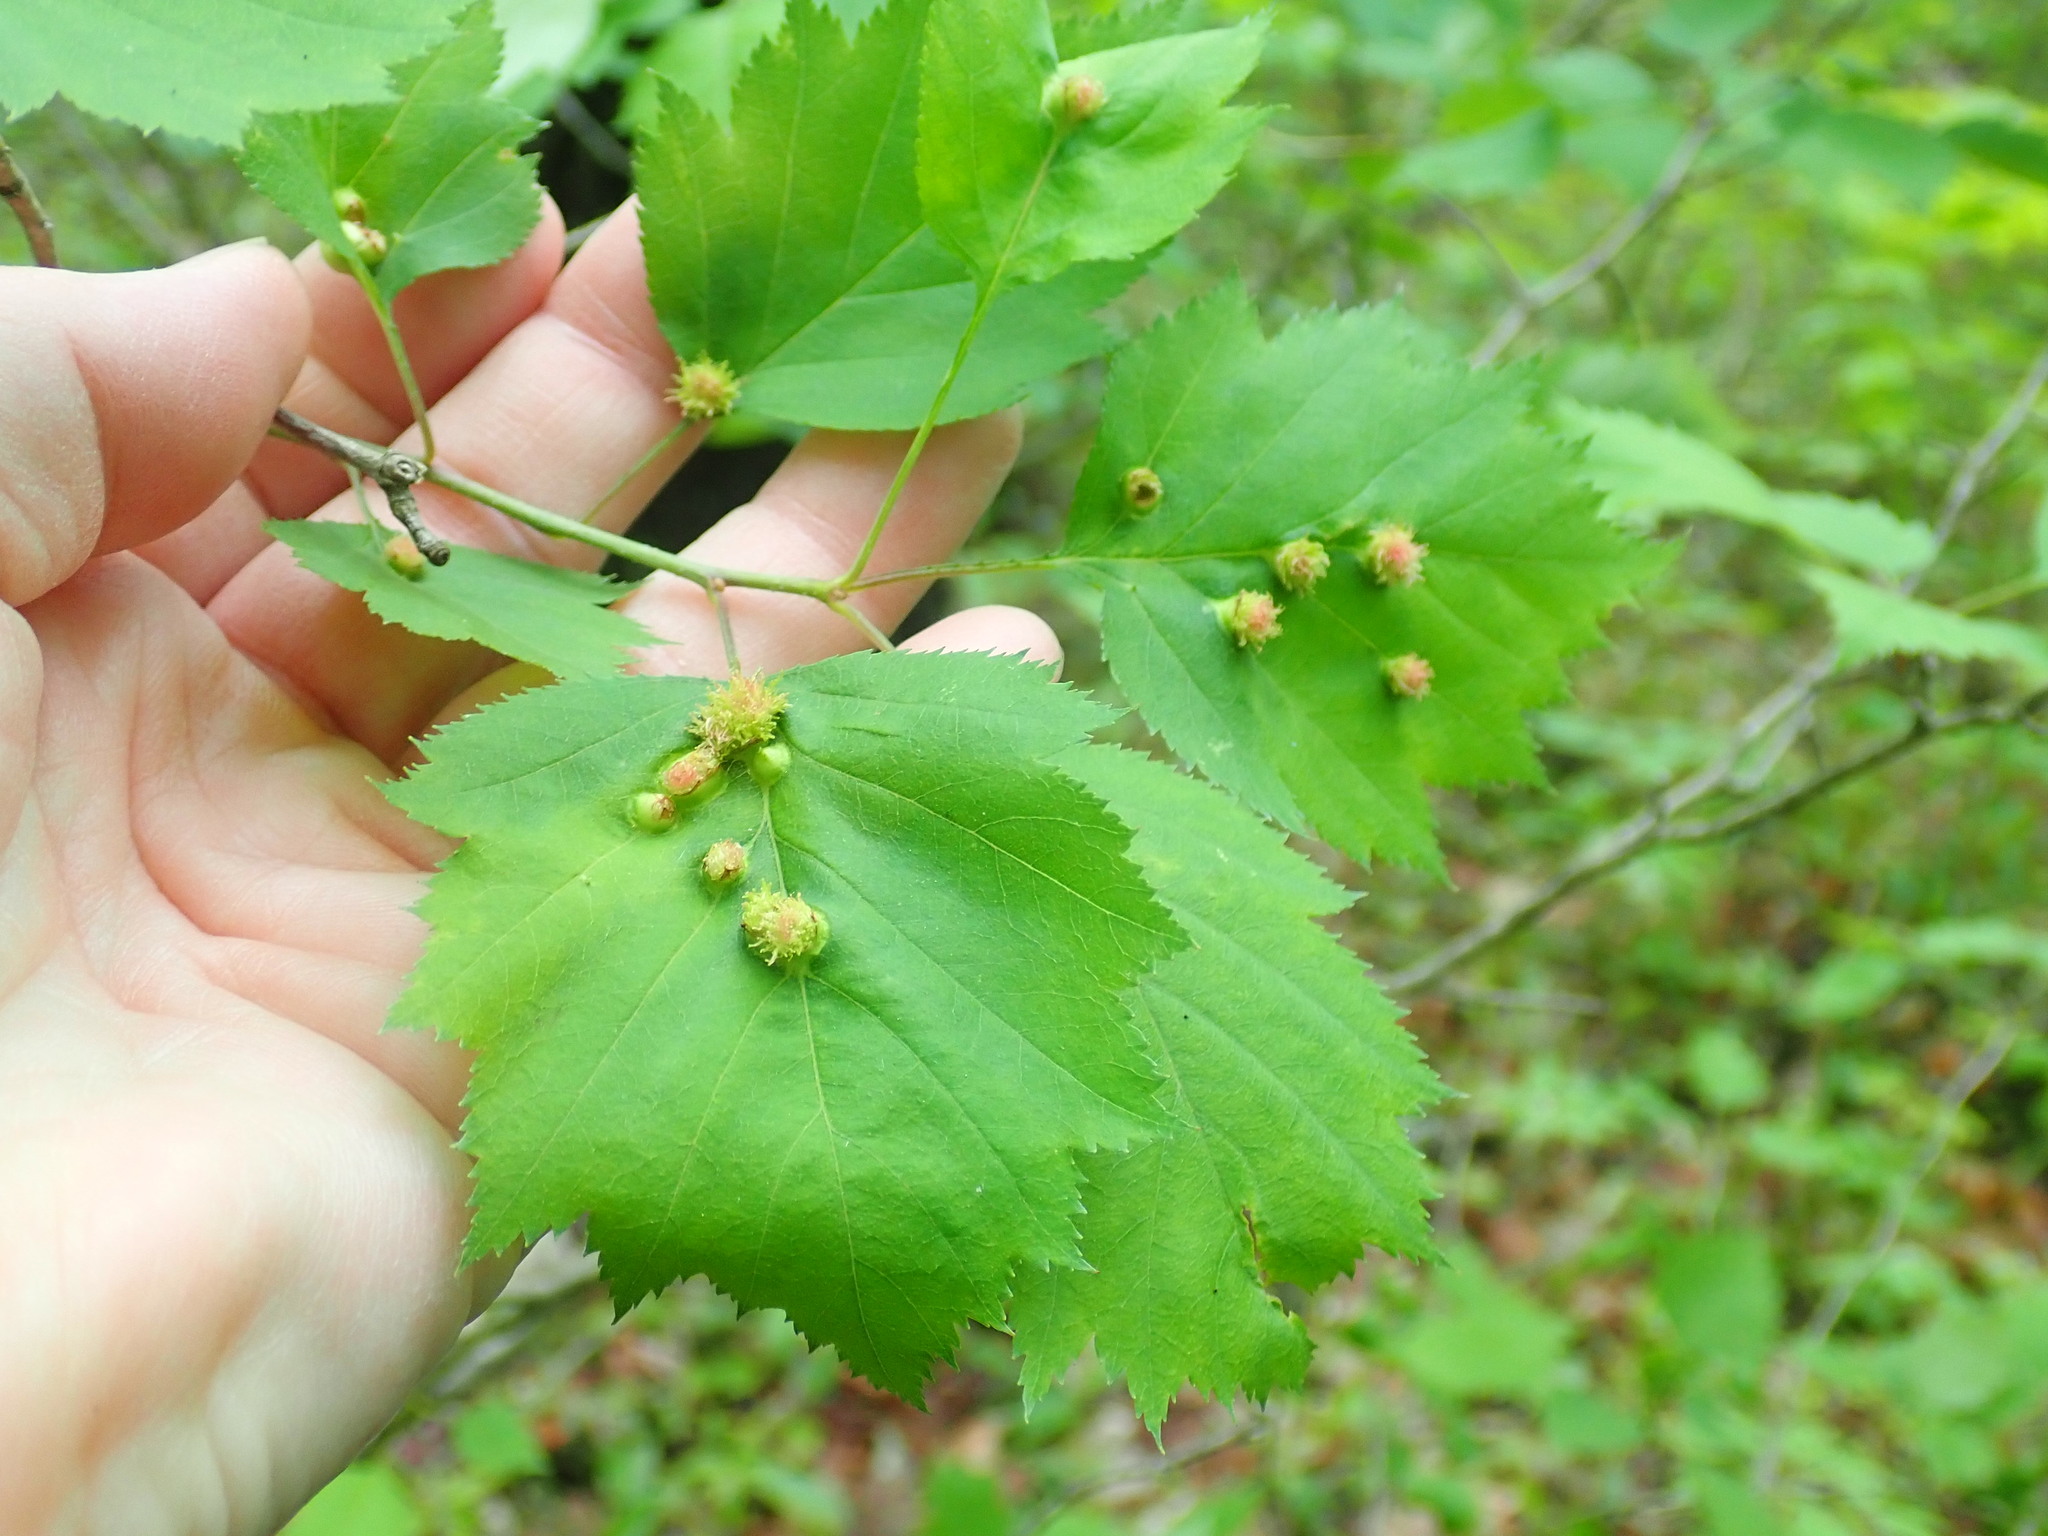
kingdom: Animalia
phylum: Arthropoda
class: Insecta
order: Diptera
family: Cecidomyiidae
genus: Blaesodiplosis
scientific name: Blaesodiplosis crataegibedeguar
